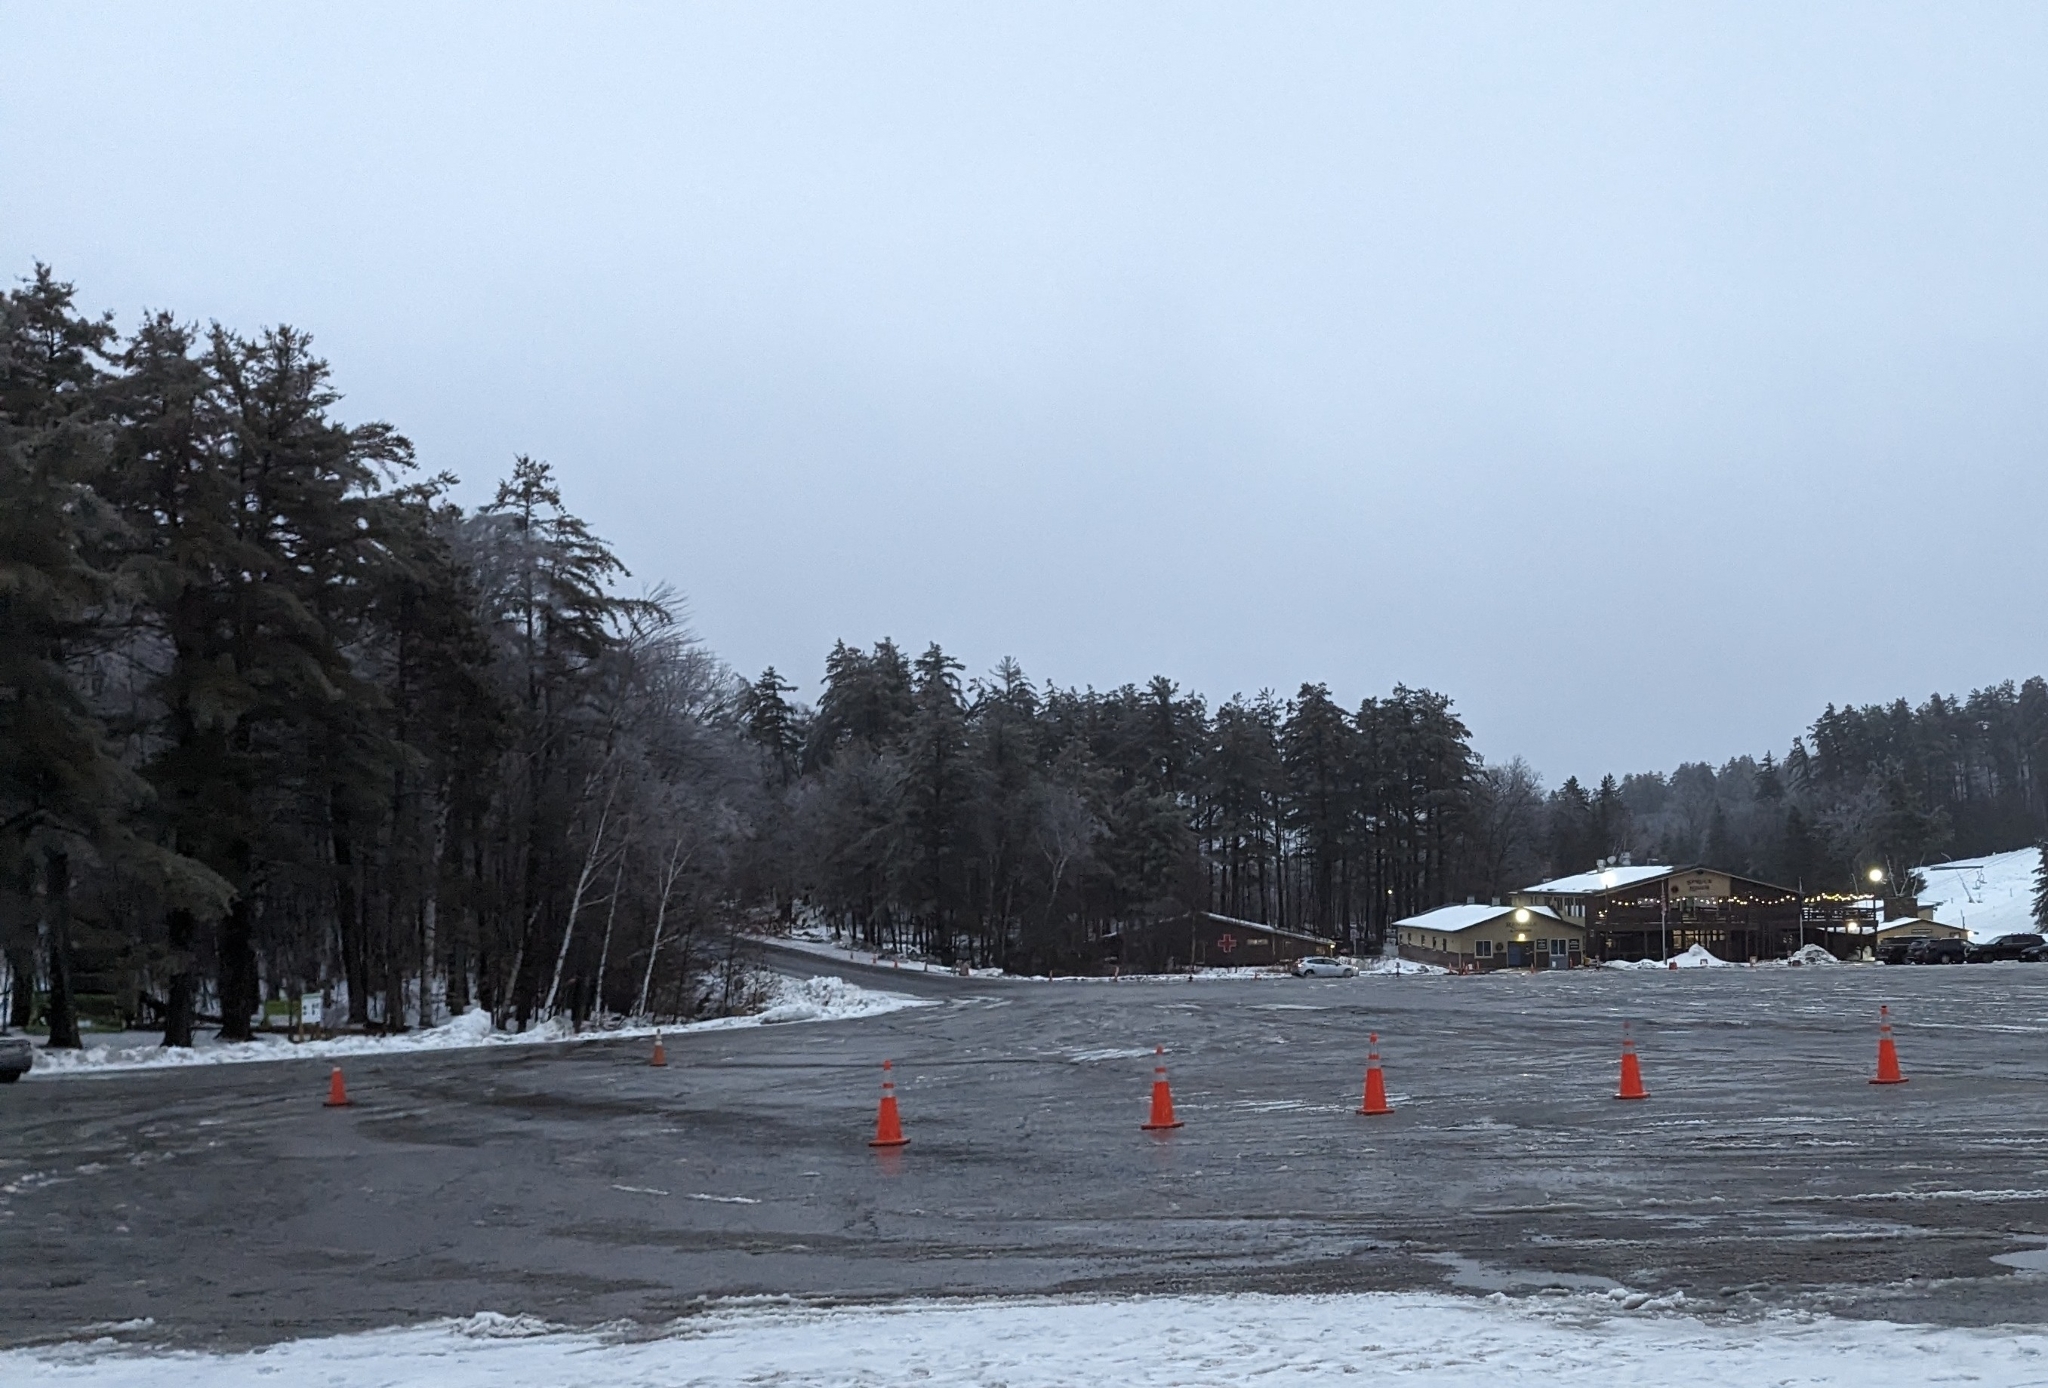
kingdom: Plantae
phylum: Tracheophyta
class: Pinopsida
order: Pinales
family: Pinaceae
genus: Pinus
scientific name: Pinus strobus
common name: Weymouth pine
